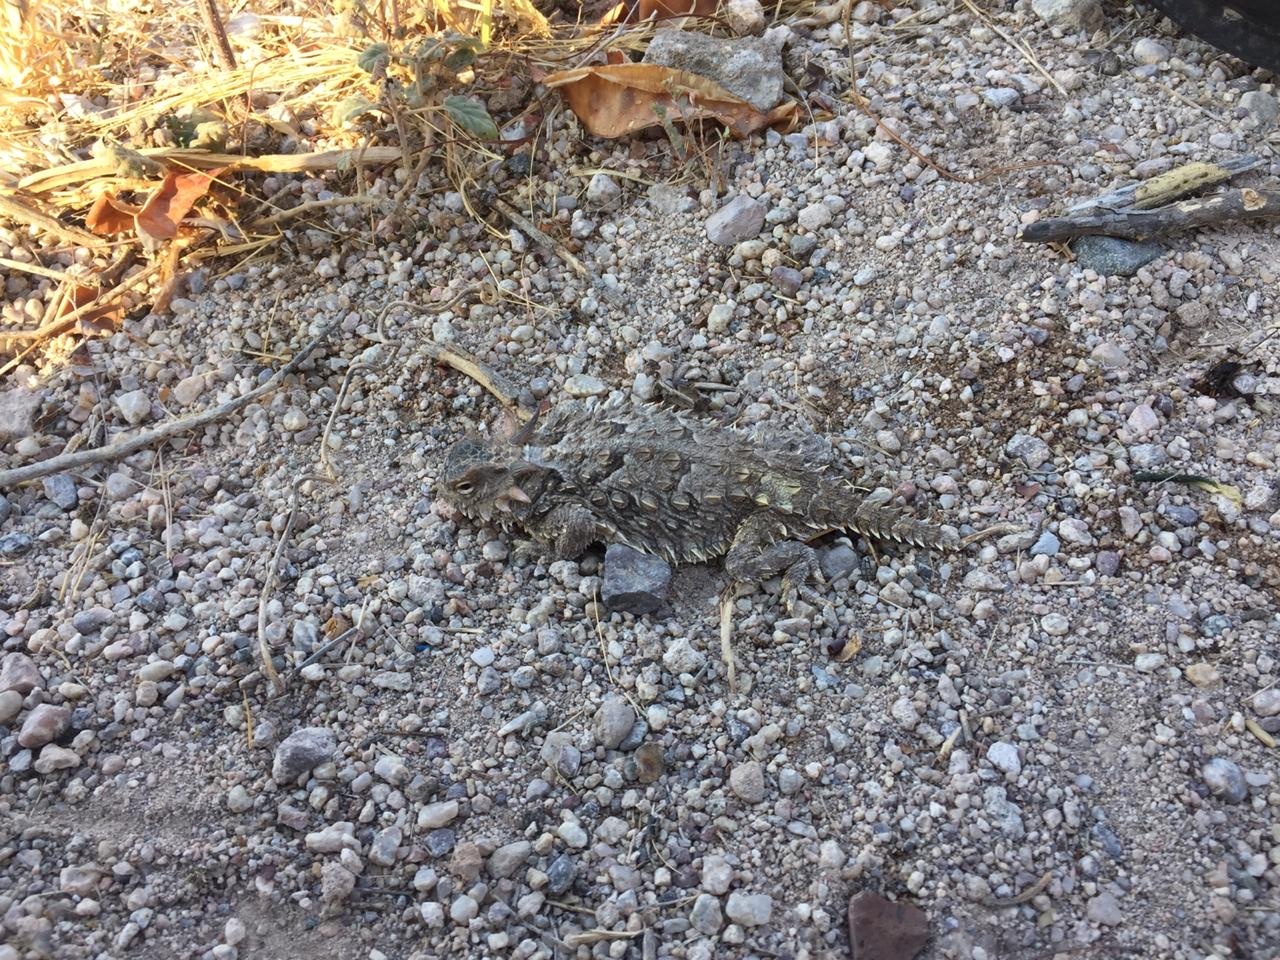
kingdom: Animalia
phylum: Chordata
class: Squamata
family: Phrynosomatidae
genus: Phrynosoma
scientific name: Phrynosoma coronatum
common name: Blainville horned lizard
